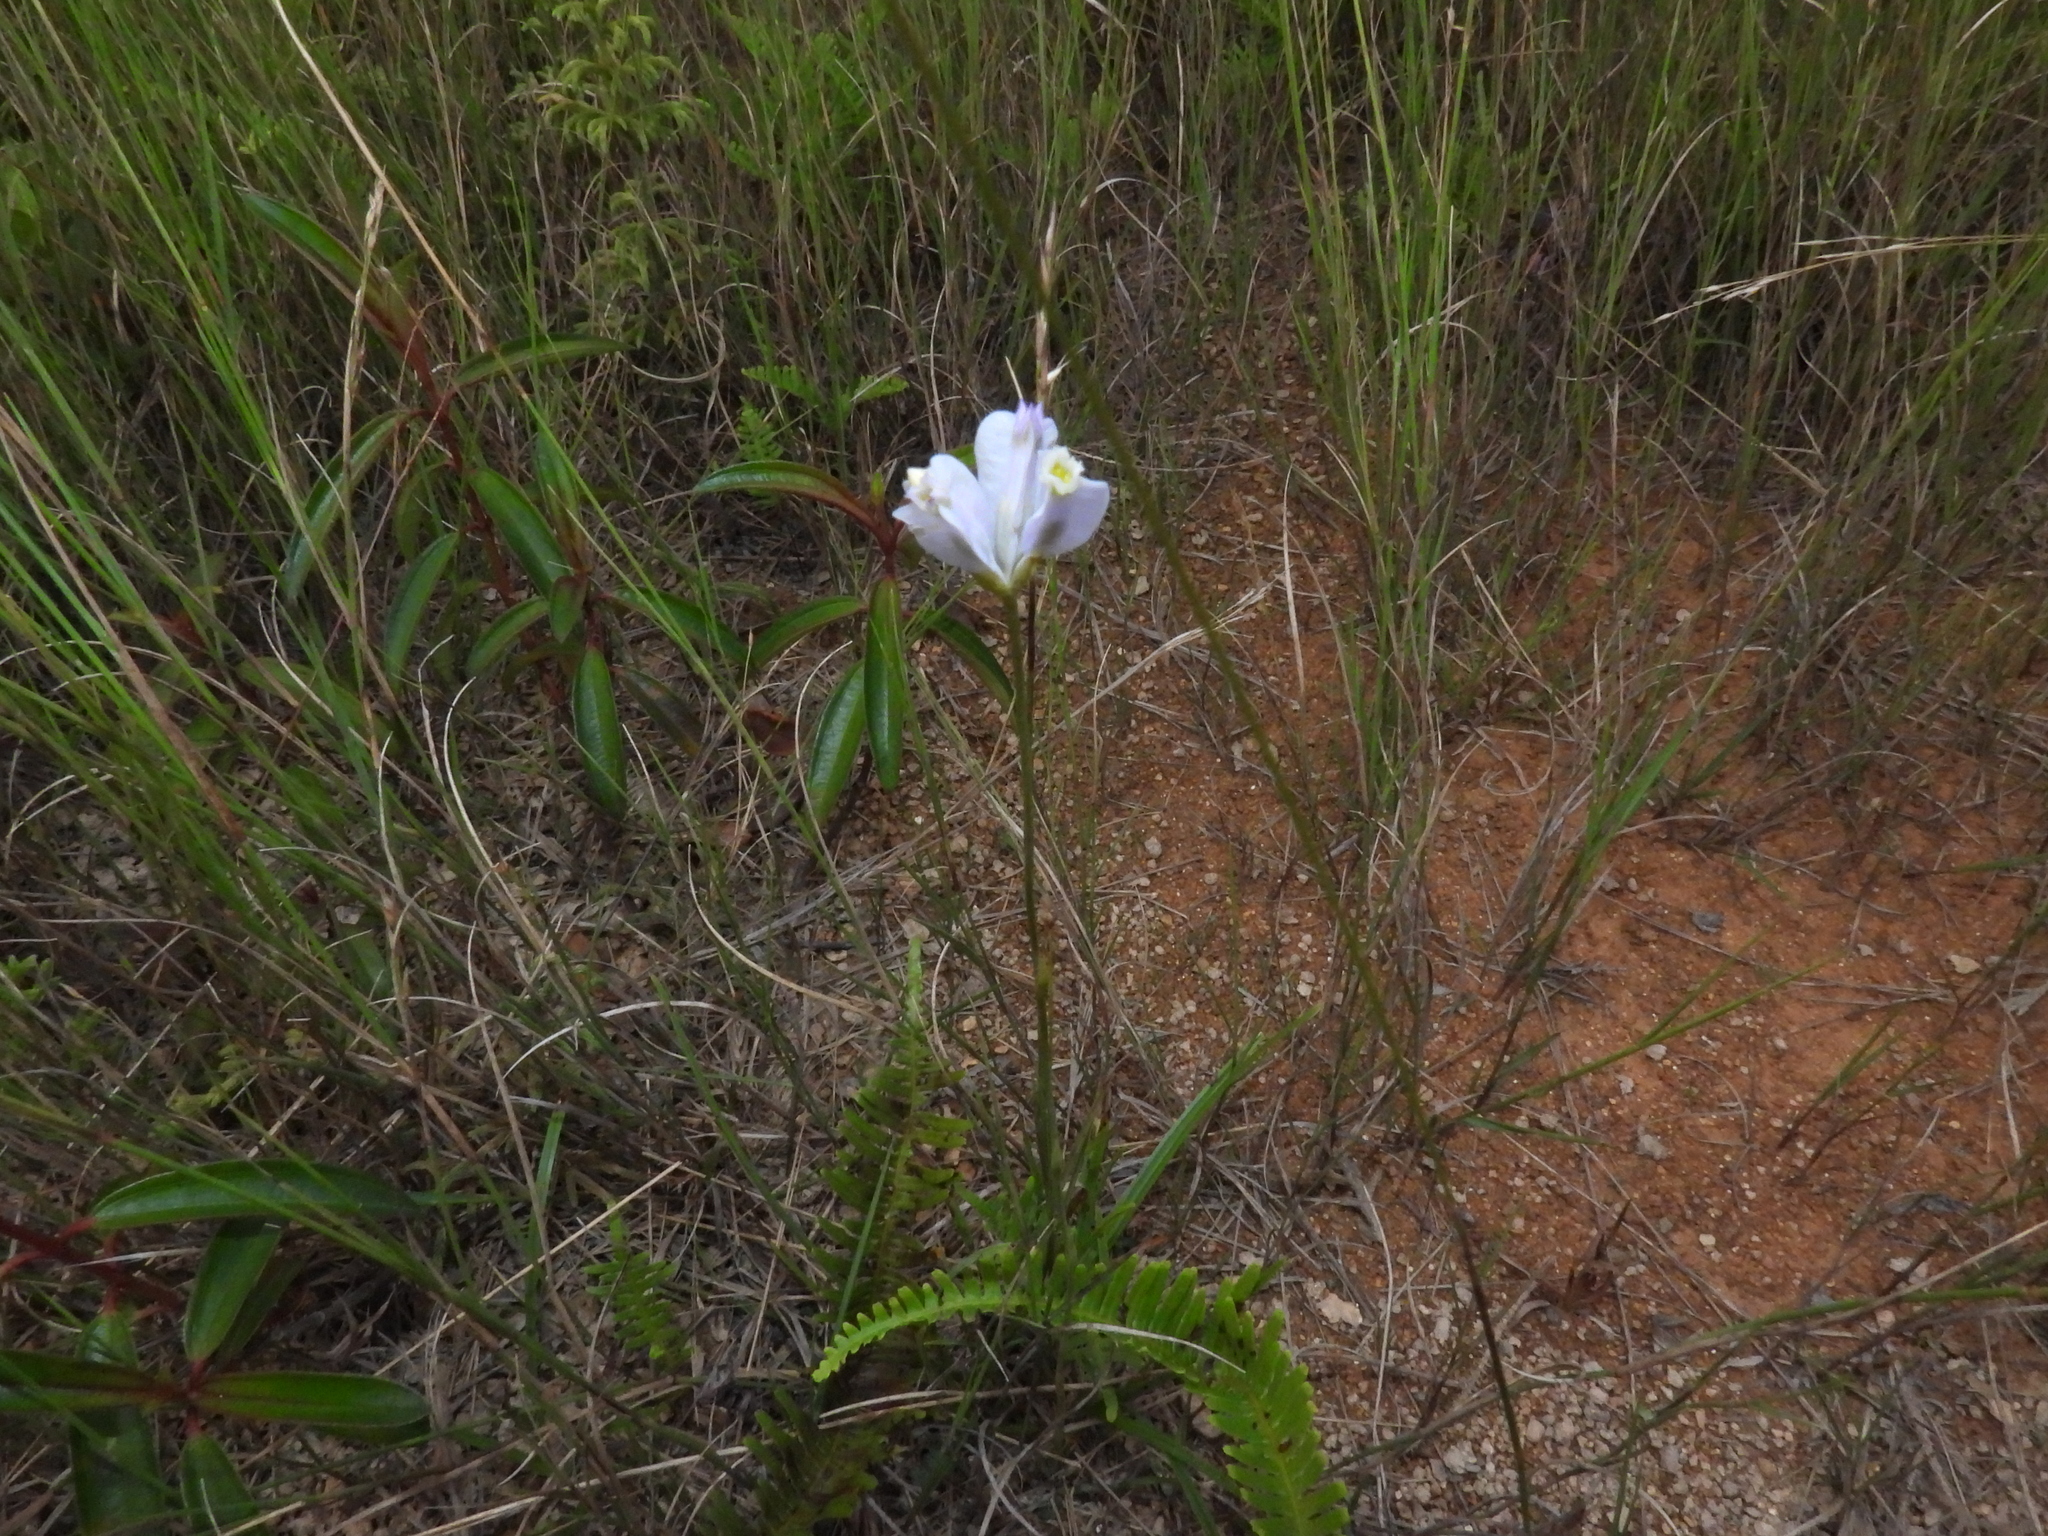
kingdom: Plantae
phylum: Tracheophyta
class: Liliopsida
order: Dioscoreales
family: Burmanniaceae
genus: Burmannia
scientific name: Burmannia coelestis
